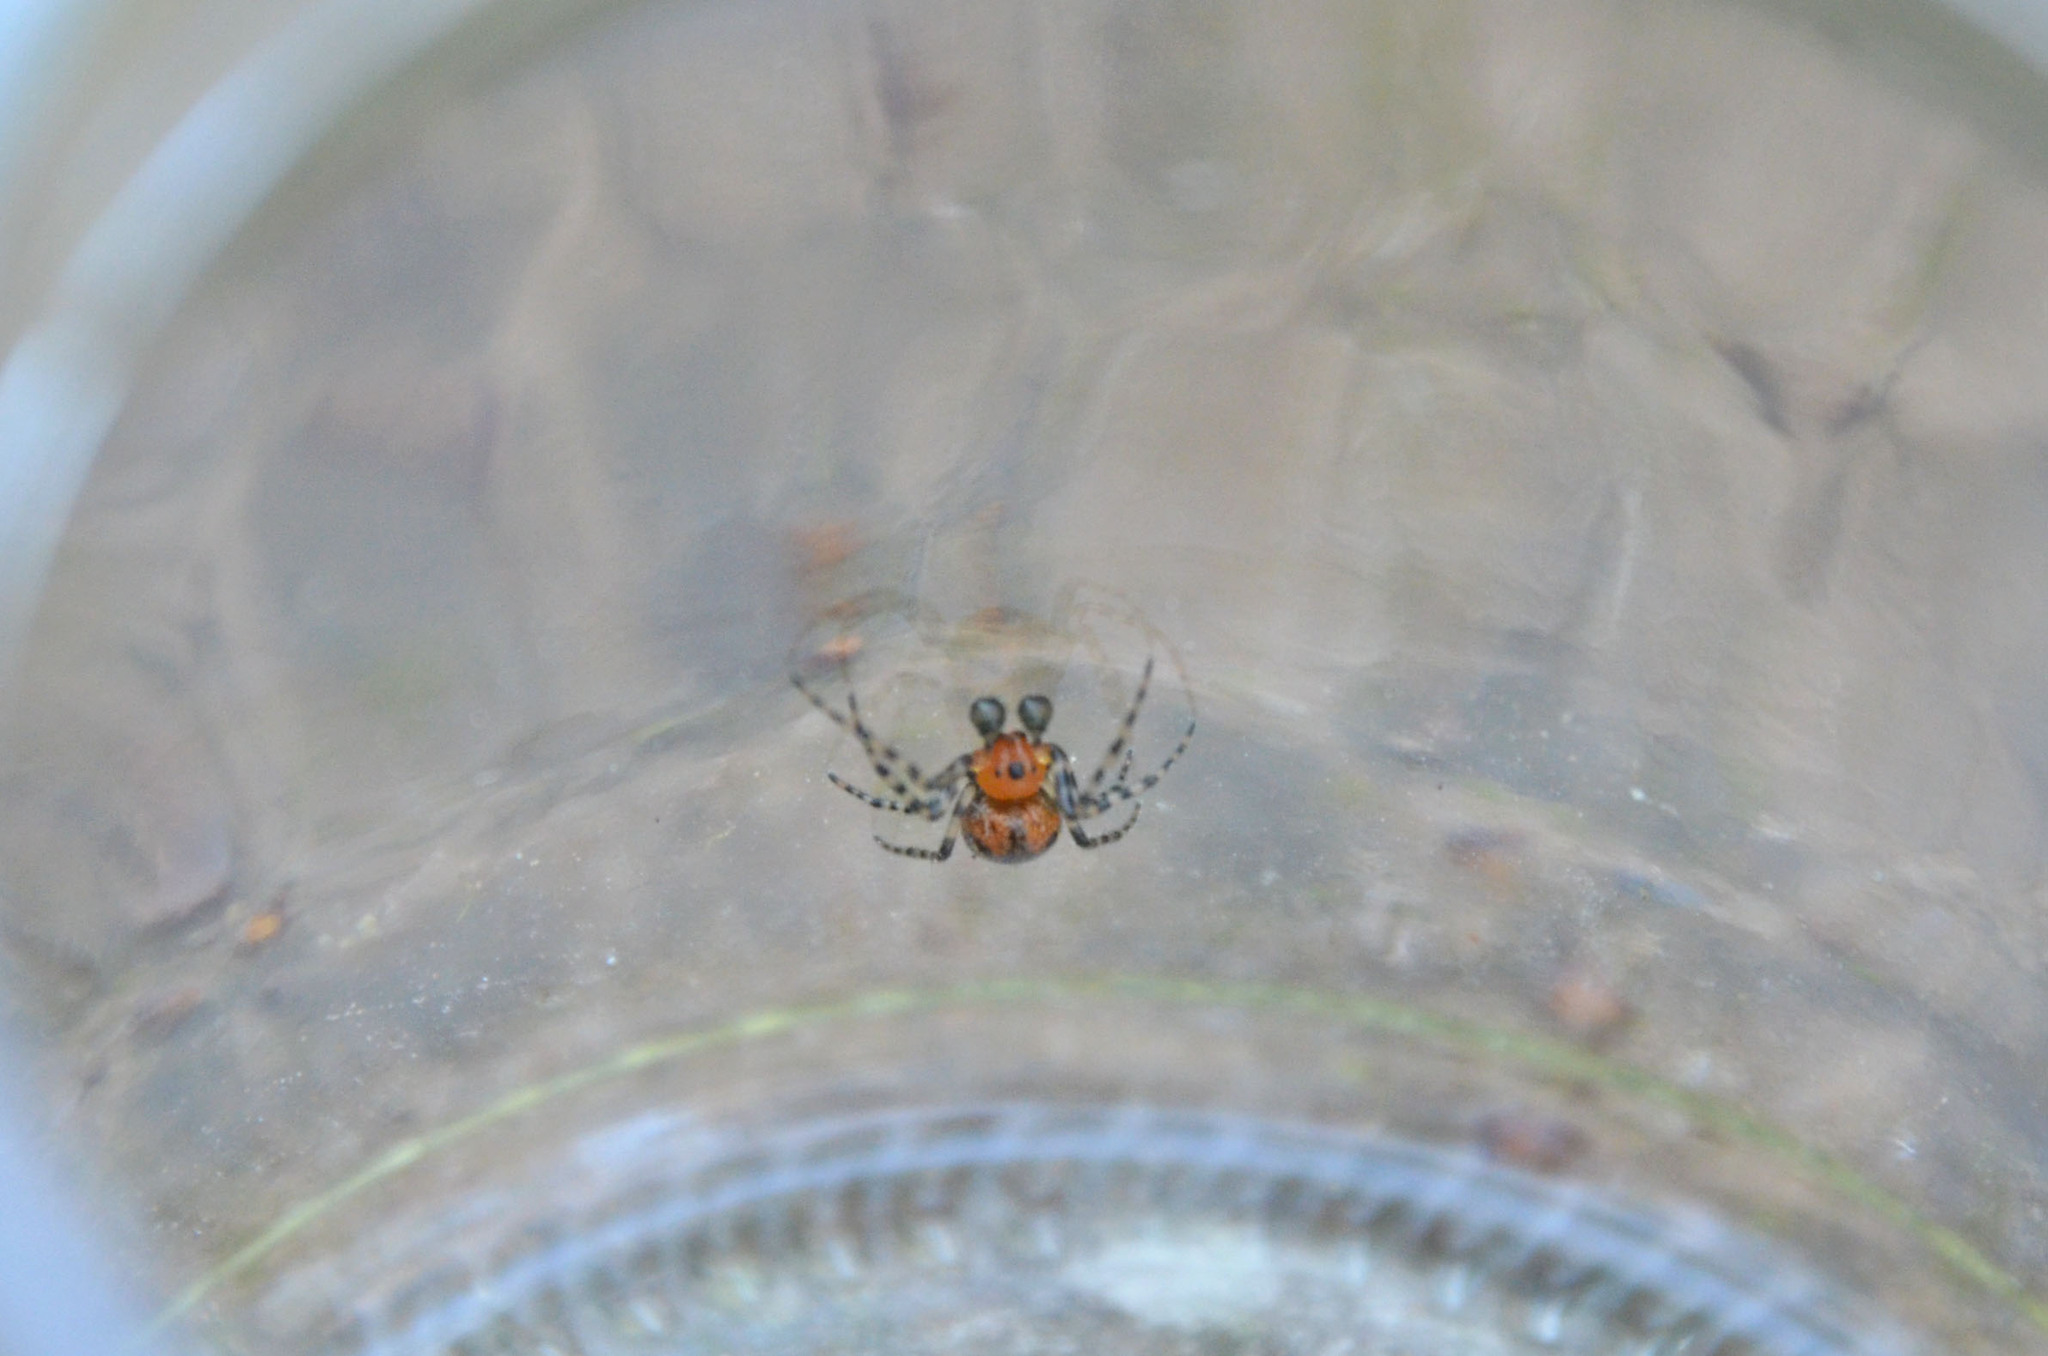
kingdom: Animalia
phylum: Arthropoda
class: Arachnida
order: Araneae
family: Araneidae
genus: Alpaida
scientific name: Alpaida gallardoi
